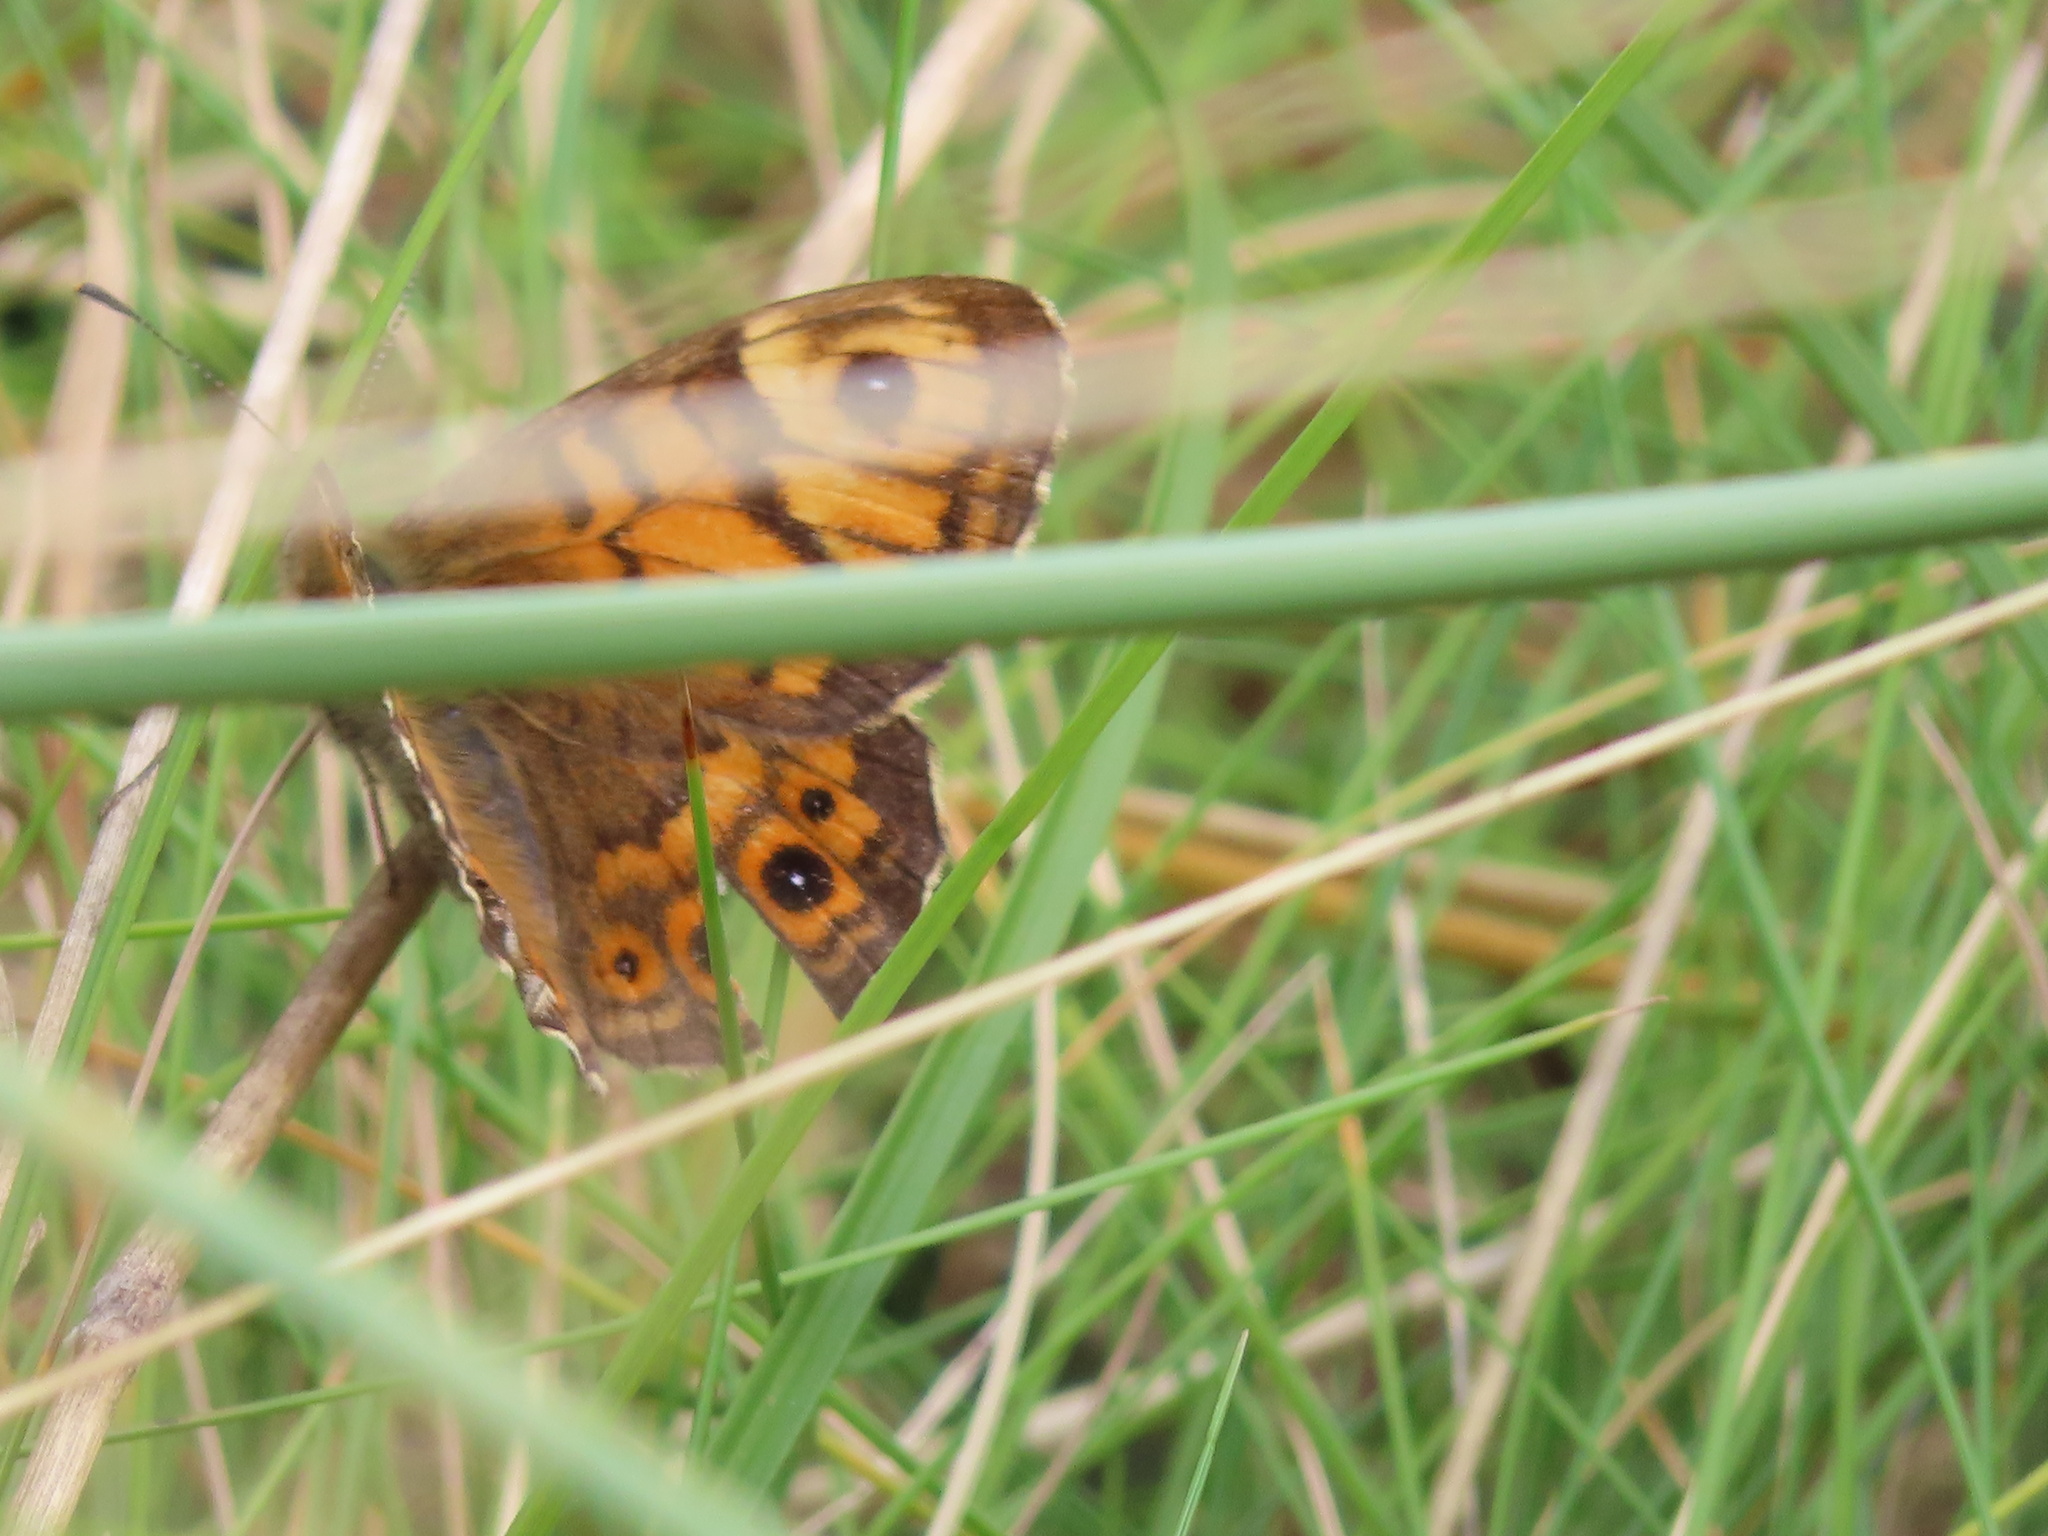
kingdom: Animalia
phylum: Arthropoda
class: Insecta
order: Lepidoptera
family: Nymphalidae
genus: Pararge
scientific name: Pararge Lasiommata megera
